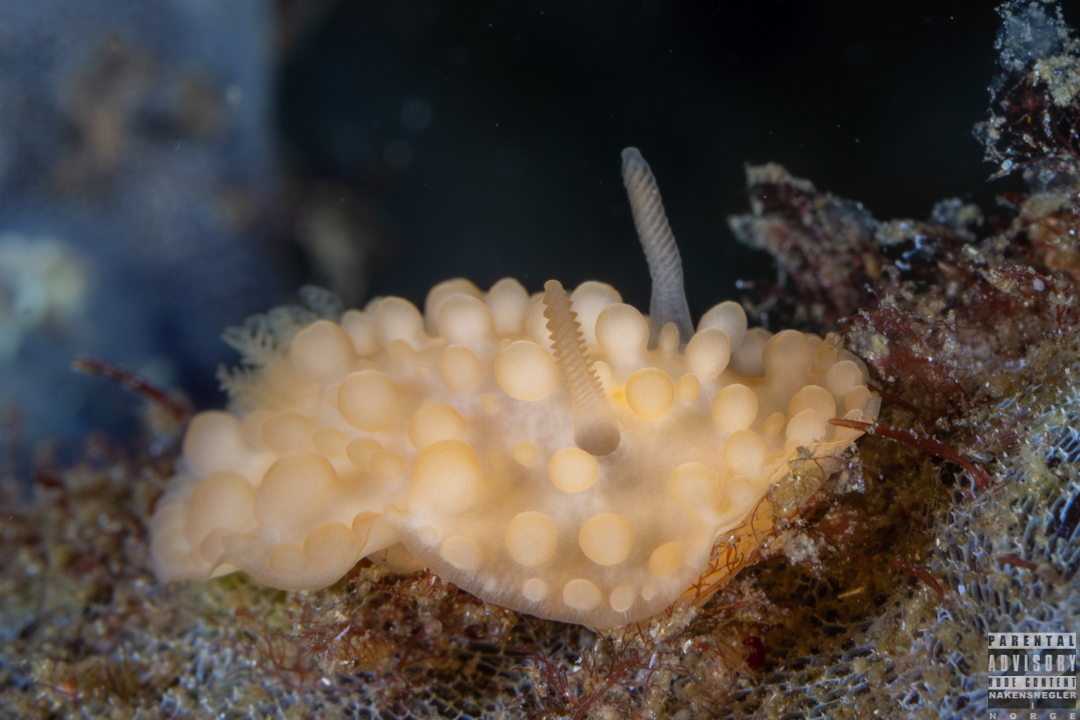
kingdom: Animalia
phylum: Mollusca
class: Gastropoda
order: Nudibranchia
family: Onchidorididae
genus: Adalaria
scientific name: Adalaria loveni
